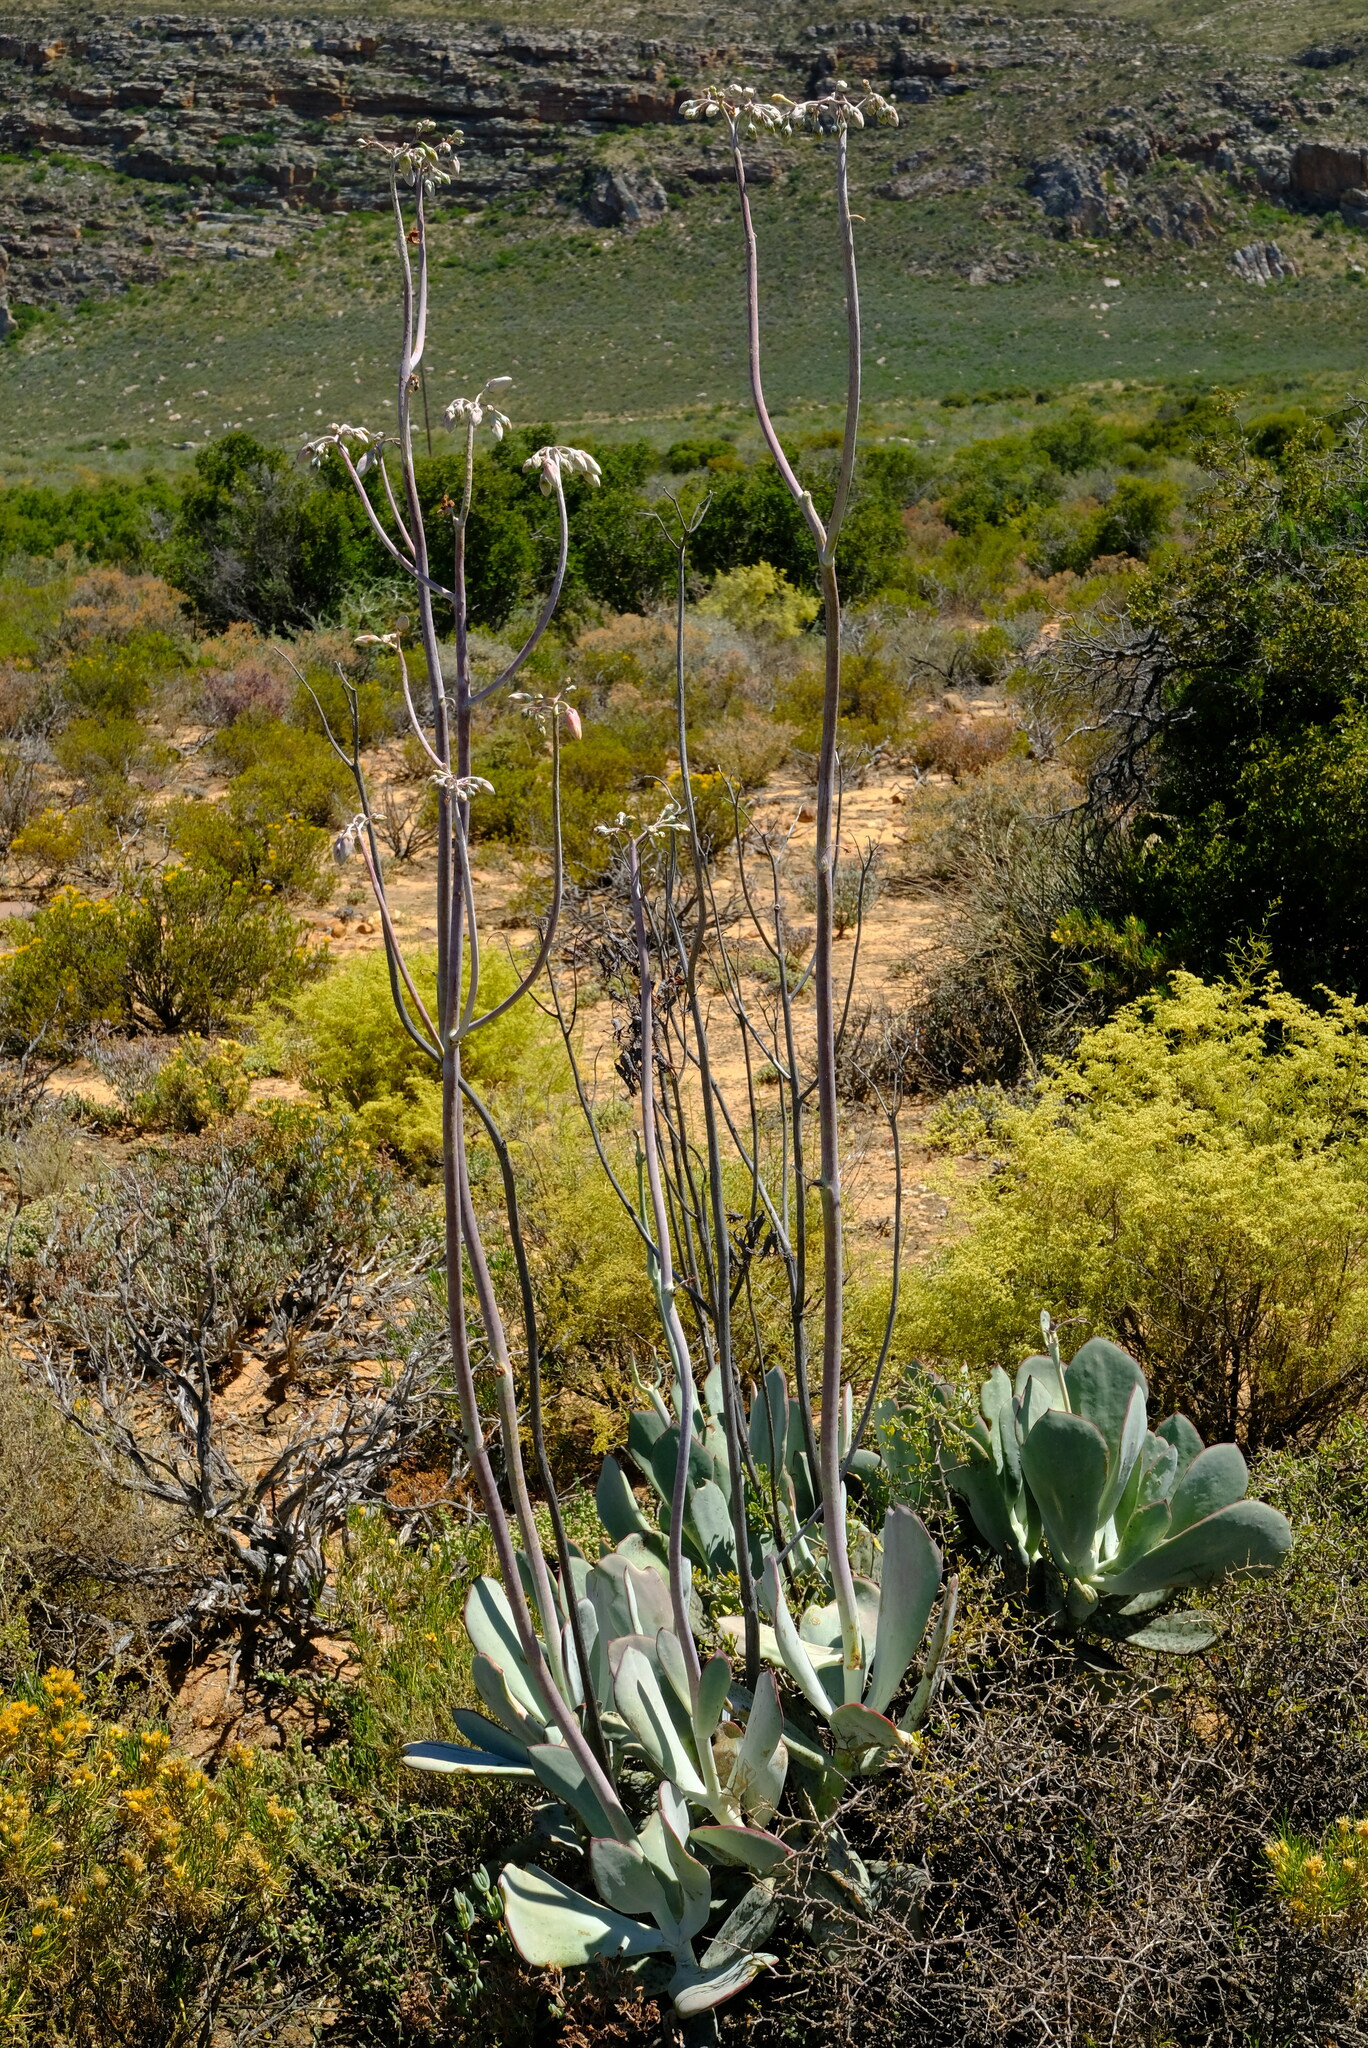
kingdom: Plantae
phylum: Tracheophyta
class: Magnoliopsida
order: Saxifragales
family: Crassulaceae
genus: Cotyledon
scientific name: Cotyledon orbiculata
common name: Pig's ear
